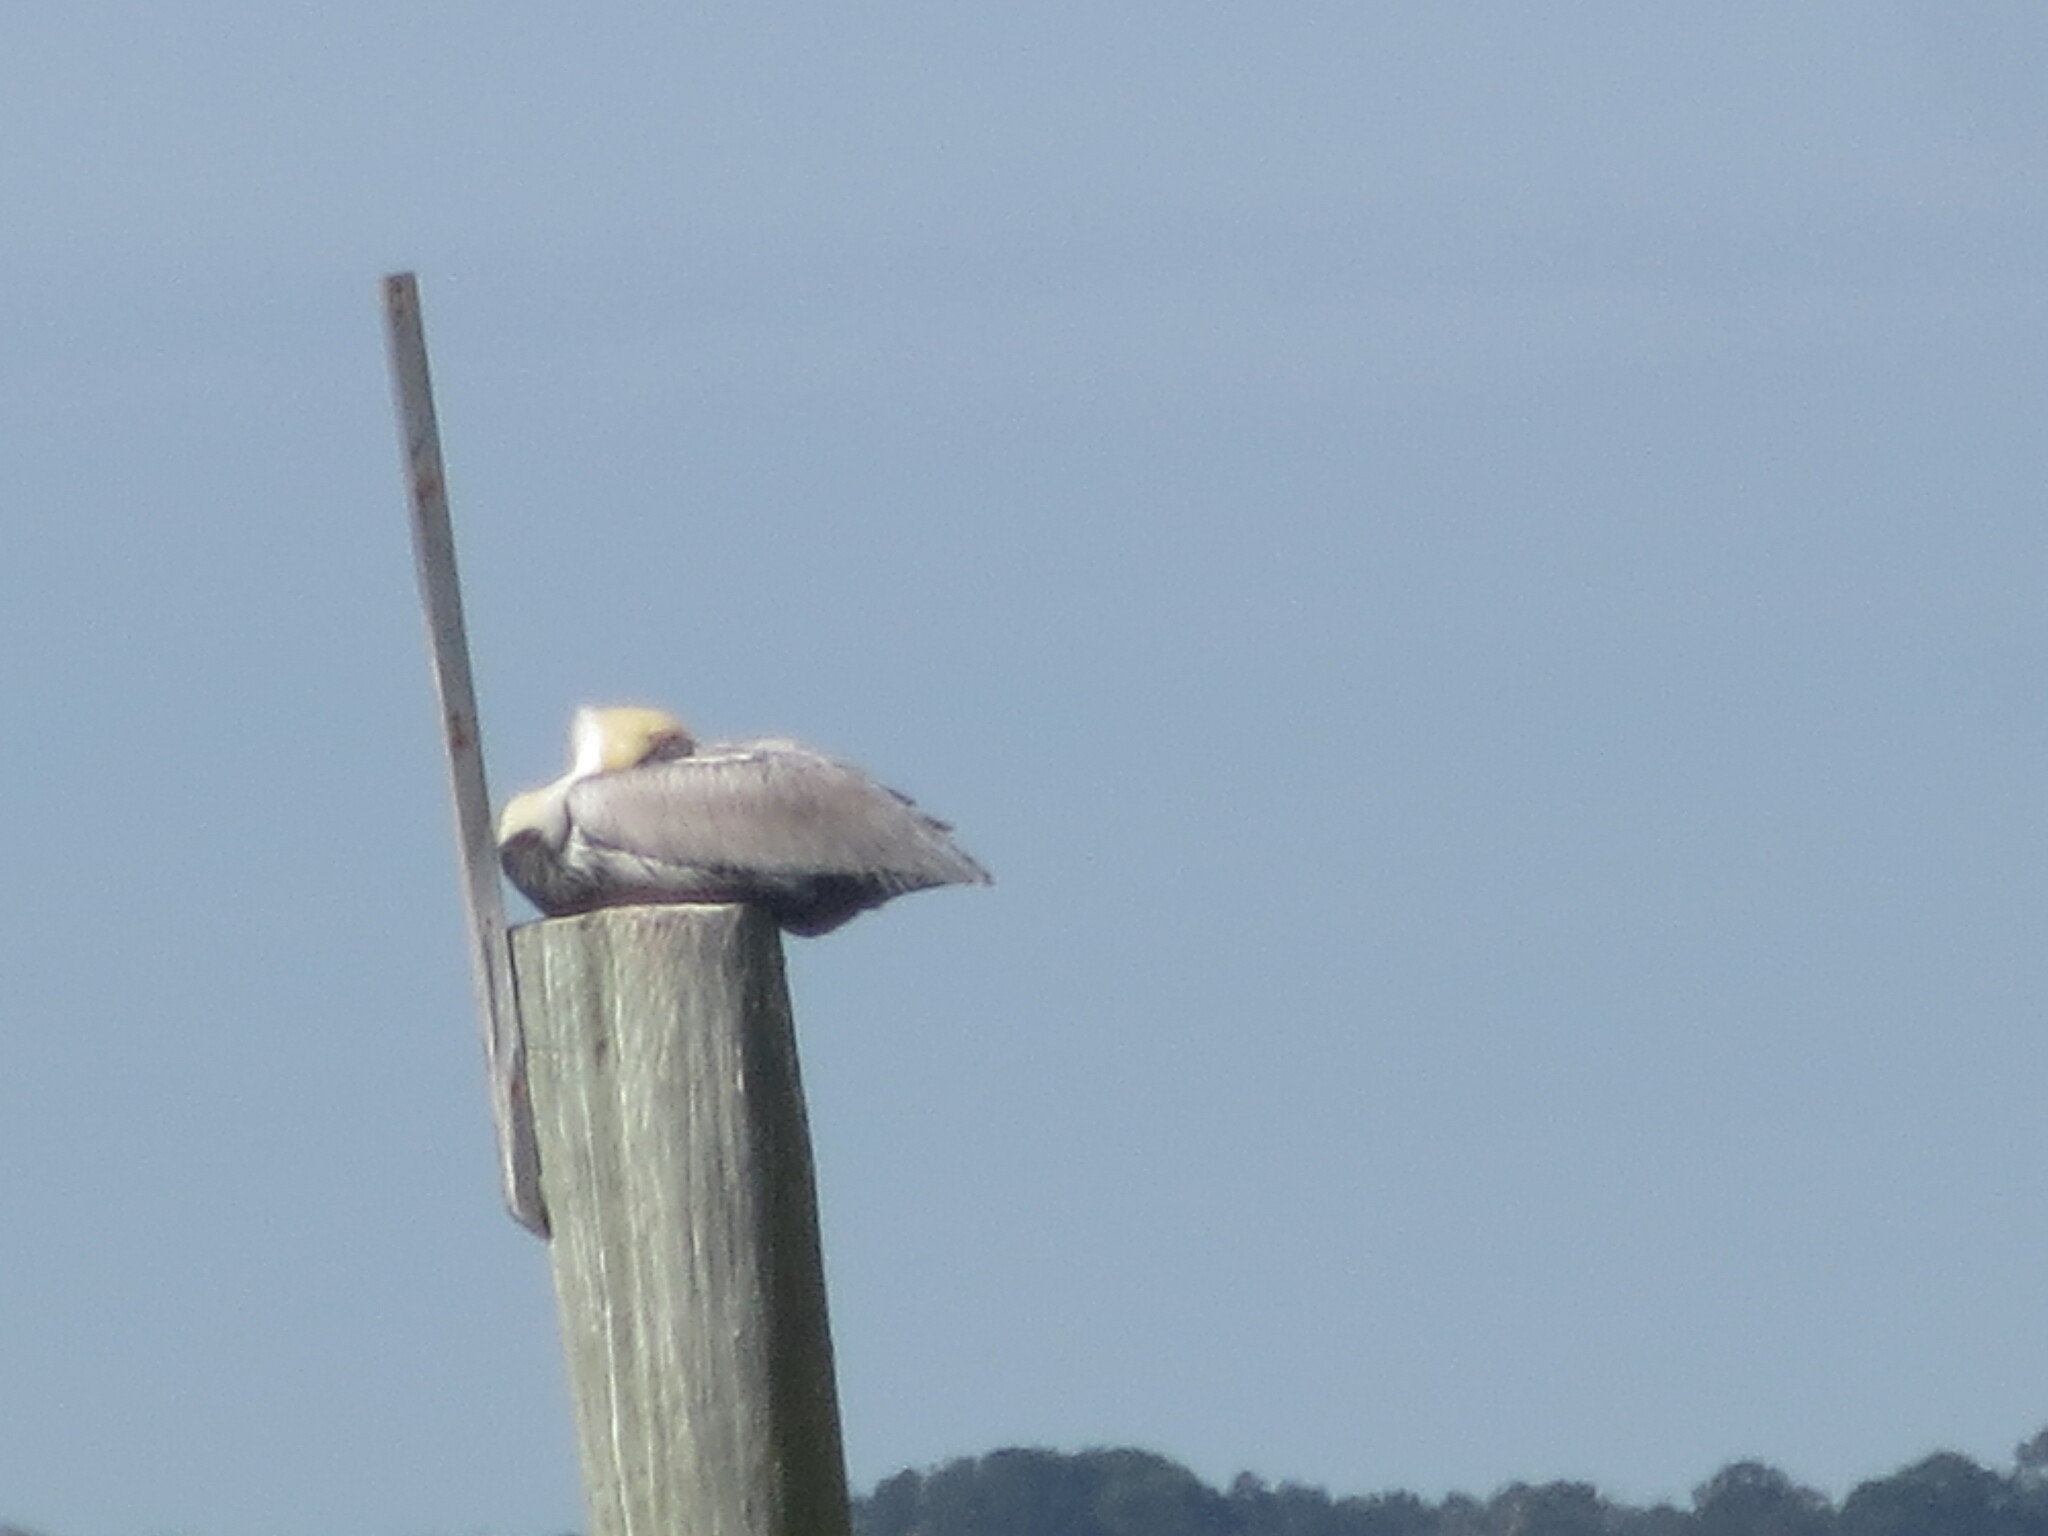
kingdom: Animalia
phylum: Chordata
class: Aves
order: Pelecaniformes
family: Pelecanidae
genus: Pelecanus
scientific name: Pelecanus occidentalis
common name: Brown pelican
